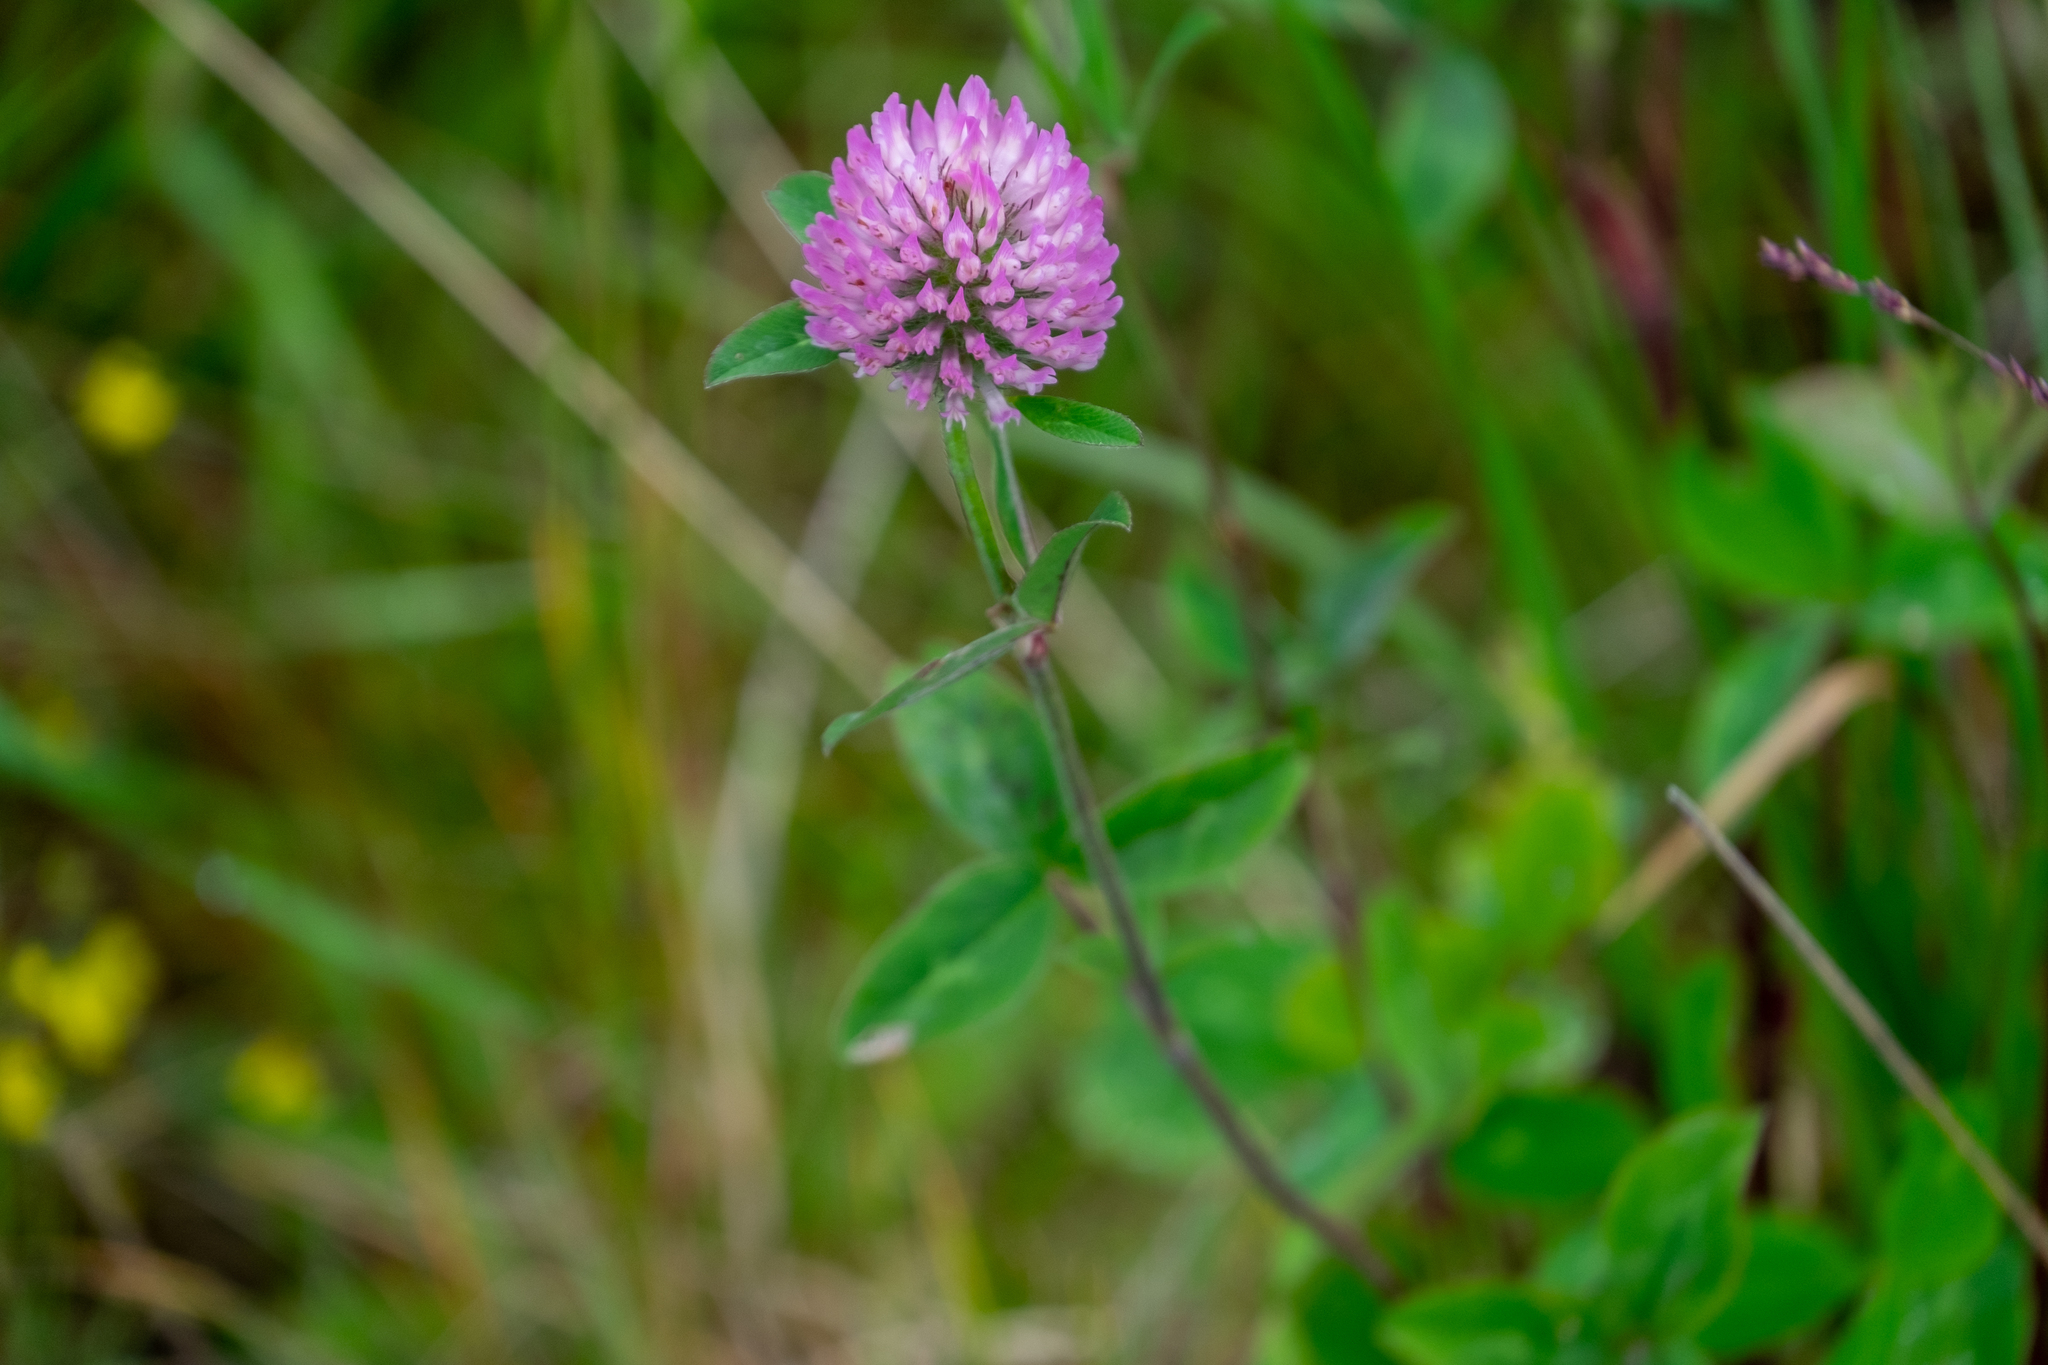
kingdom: Plantae
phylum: Tracheophyta
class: Magnoliopsida
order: Fabales
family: Fabaceae
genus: Trifolium
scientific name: Trifolium pratense
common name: Red clover
